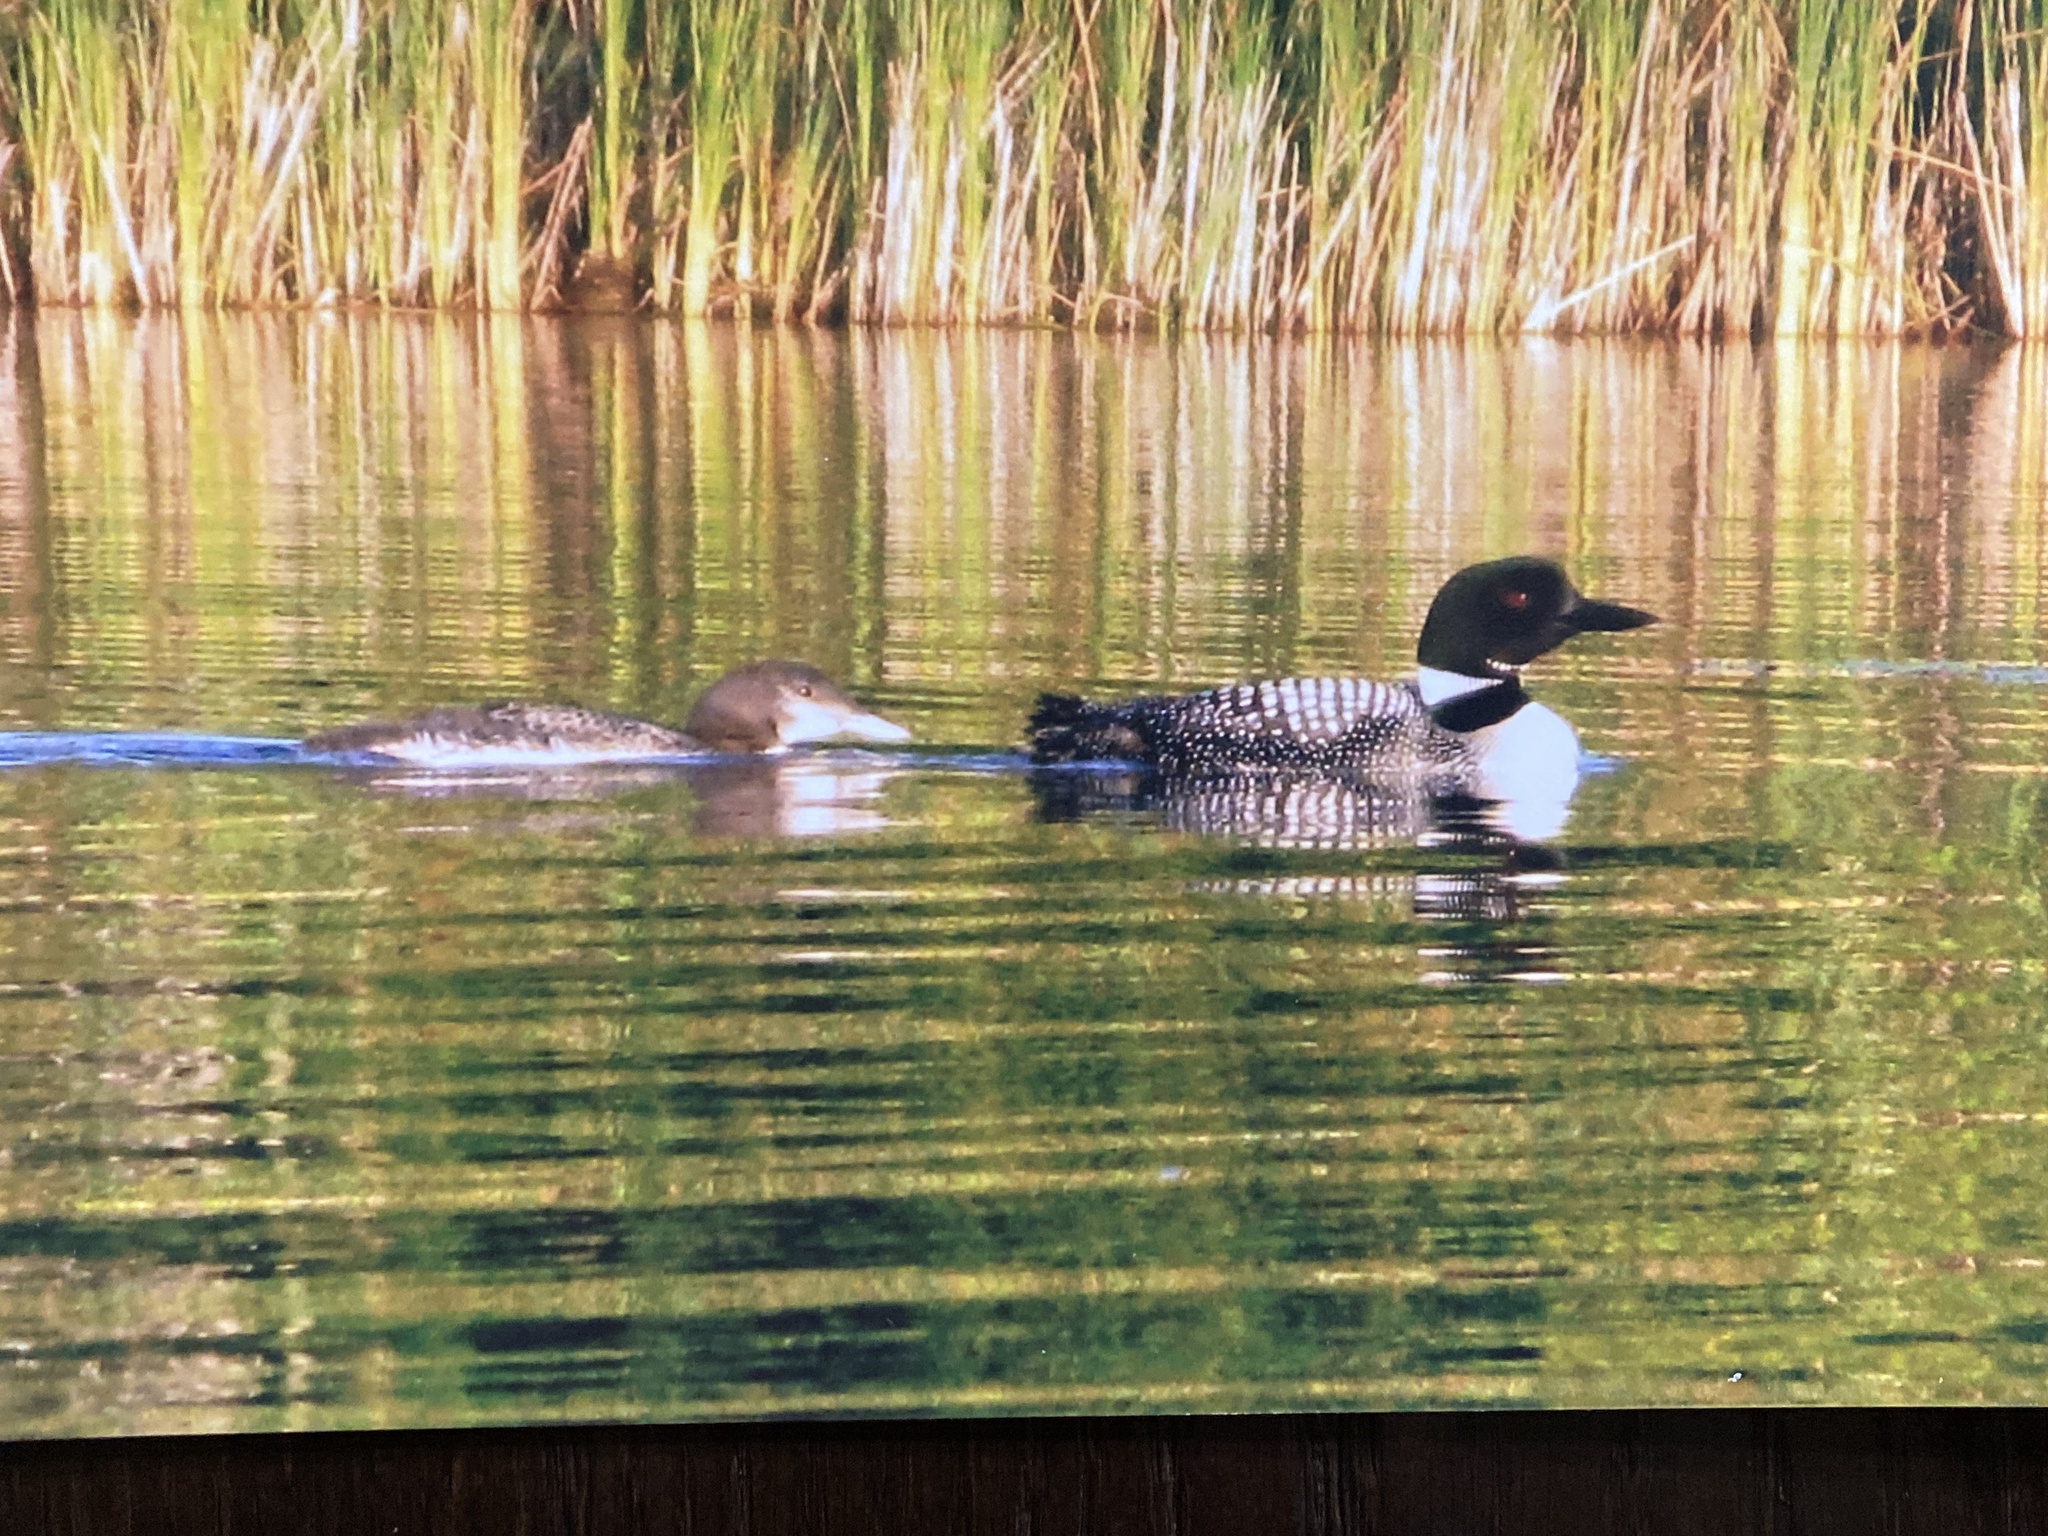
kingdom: Animalia
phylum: Chordata
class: Aves
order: Gaviiformes
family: Gaviidae
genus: Gavia
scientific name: Gavia immer
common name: Common loon
